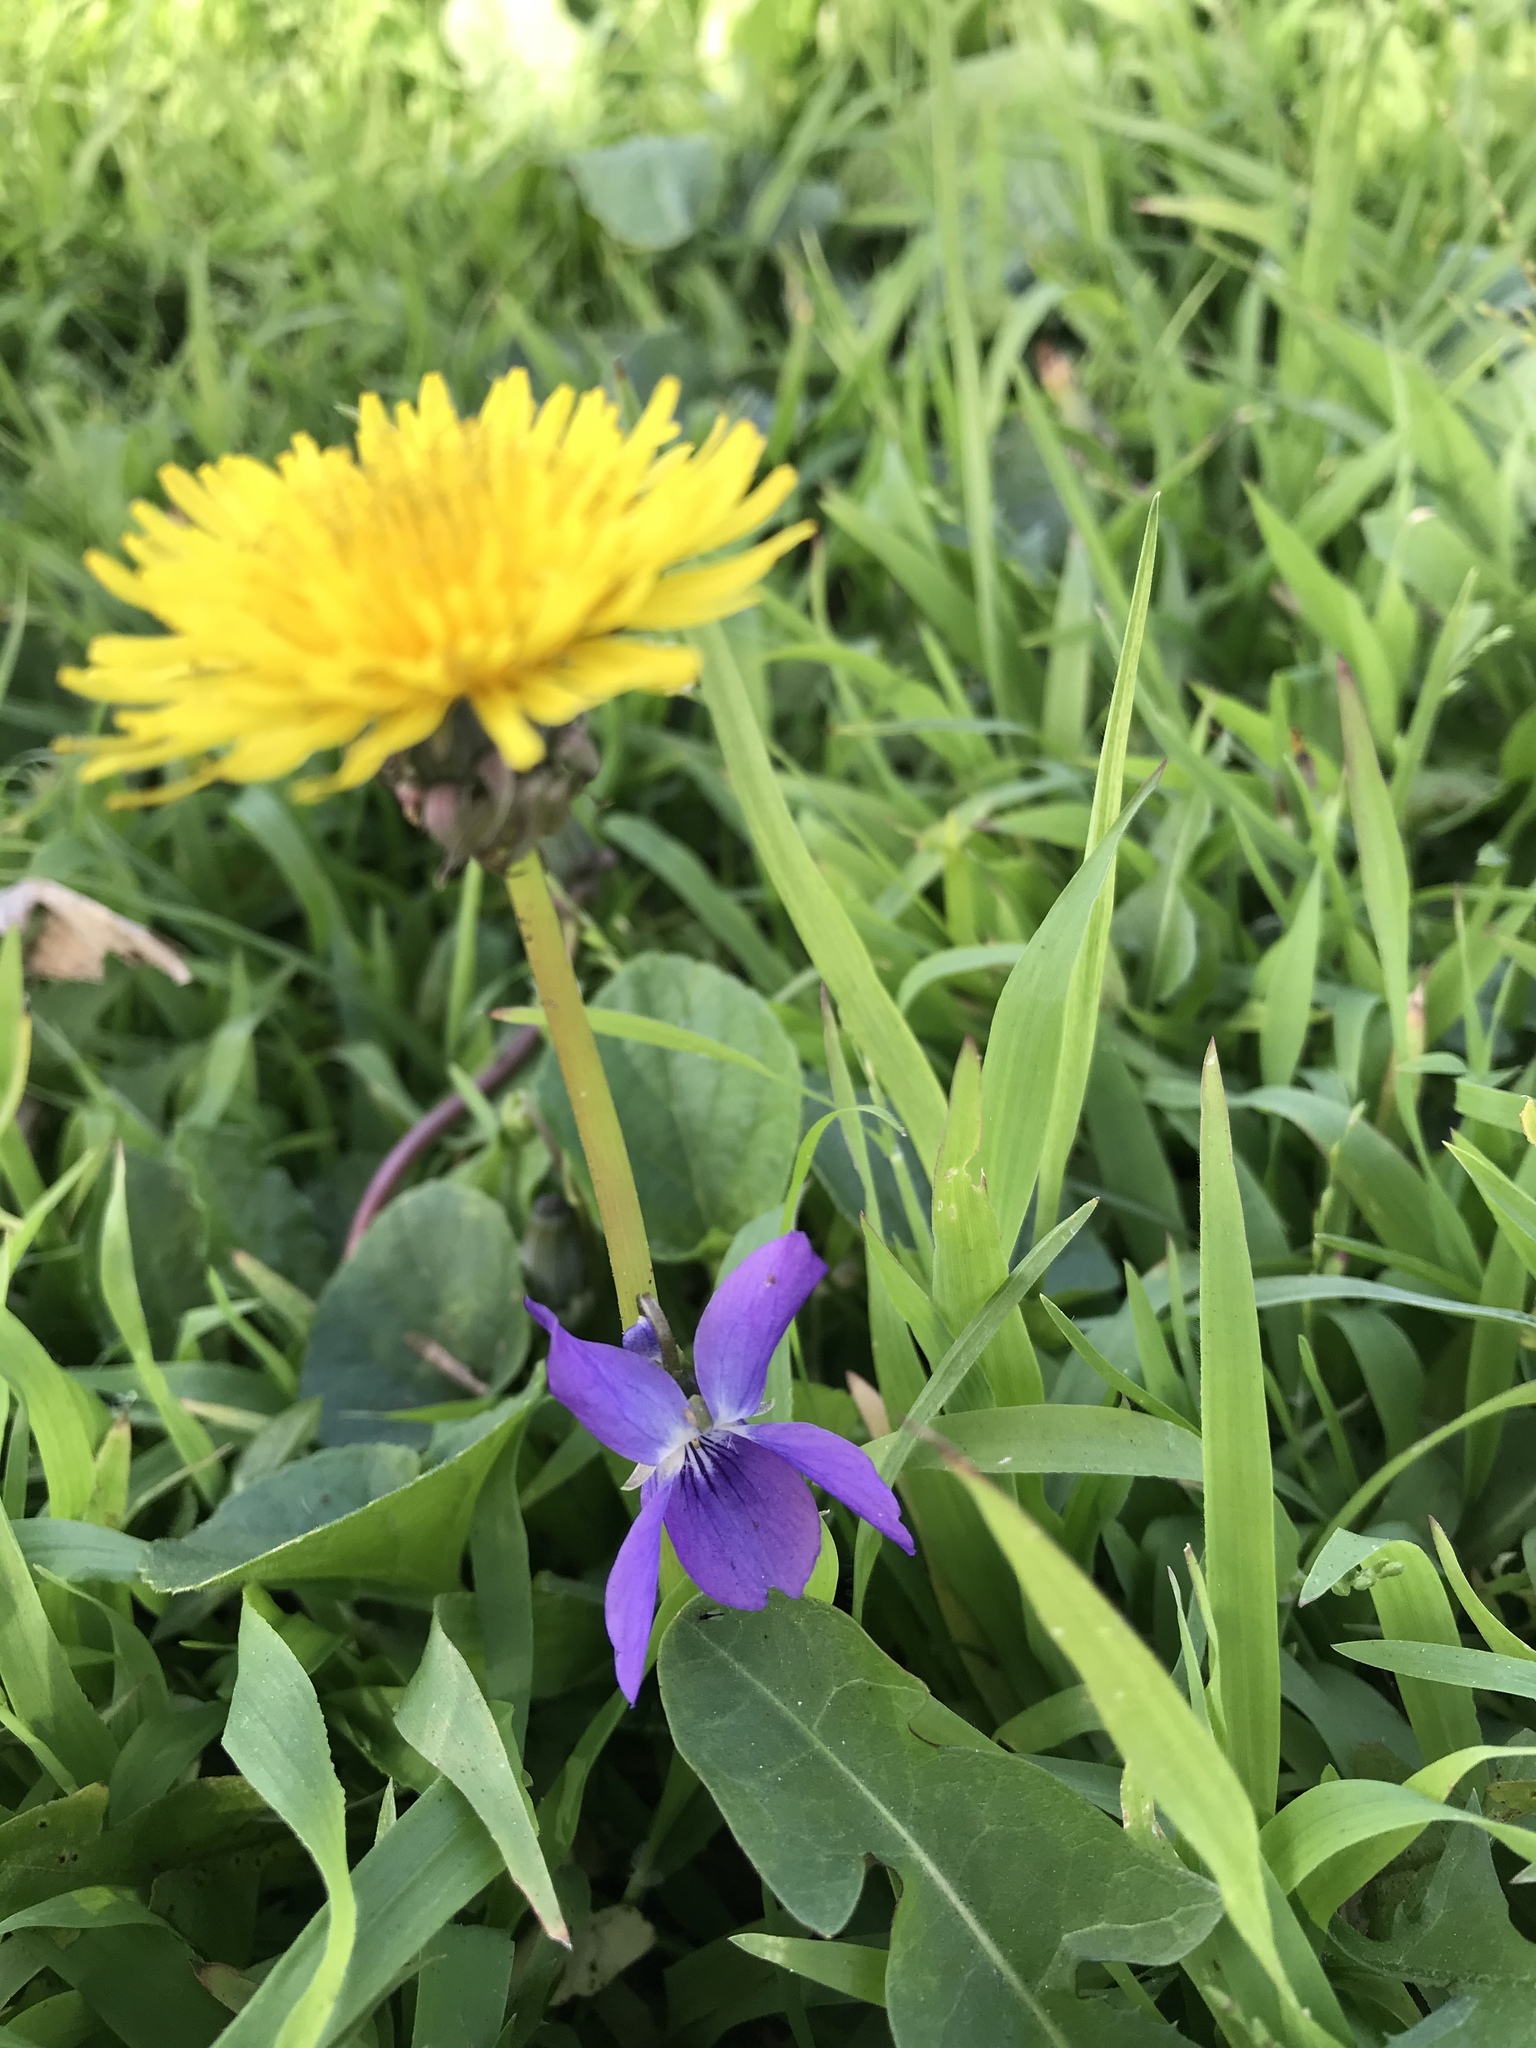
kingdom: Plantae
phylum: Tracheophyta
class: Magnoliopsida
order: Malpighiales
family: Violaceae
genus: Viola
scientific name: Viola odorata
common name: Sweet violet
